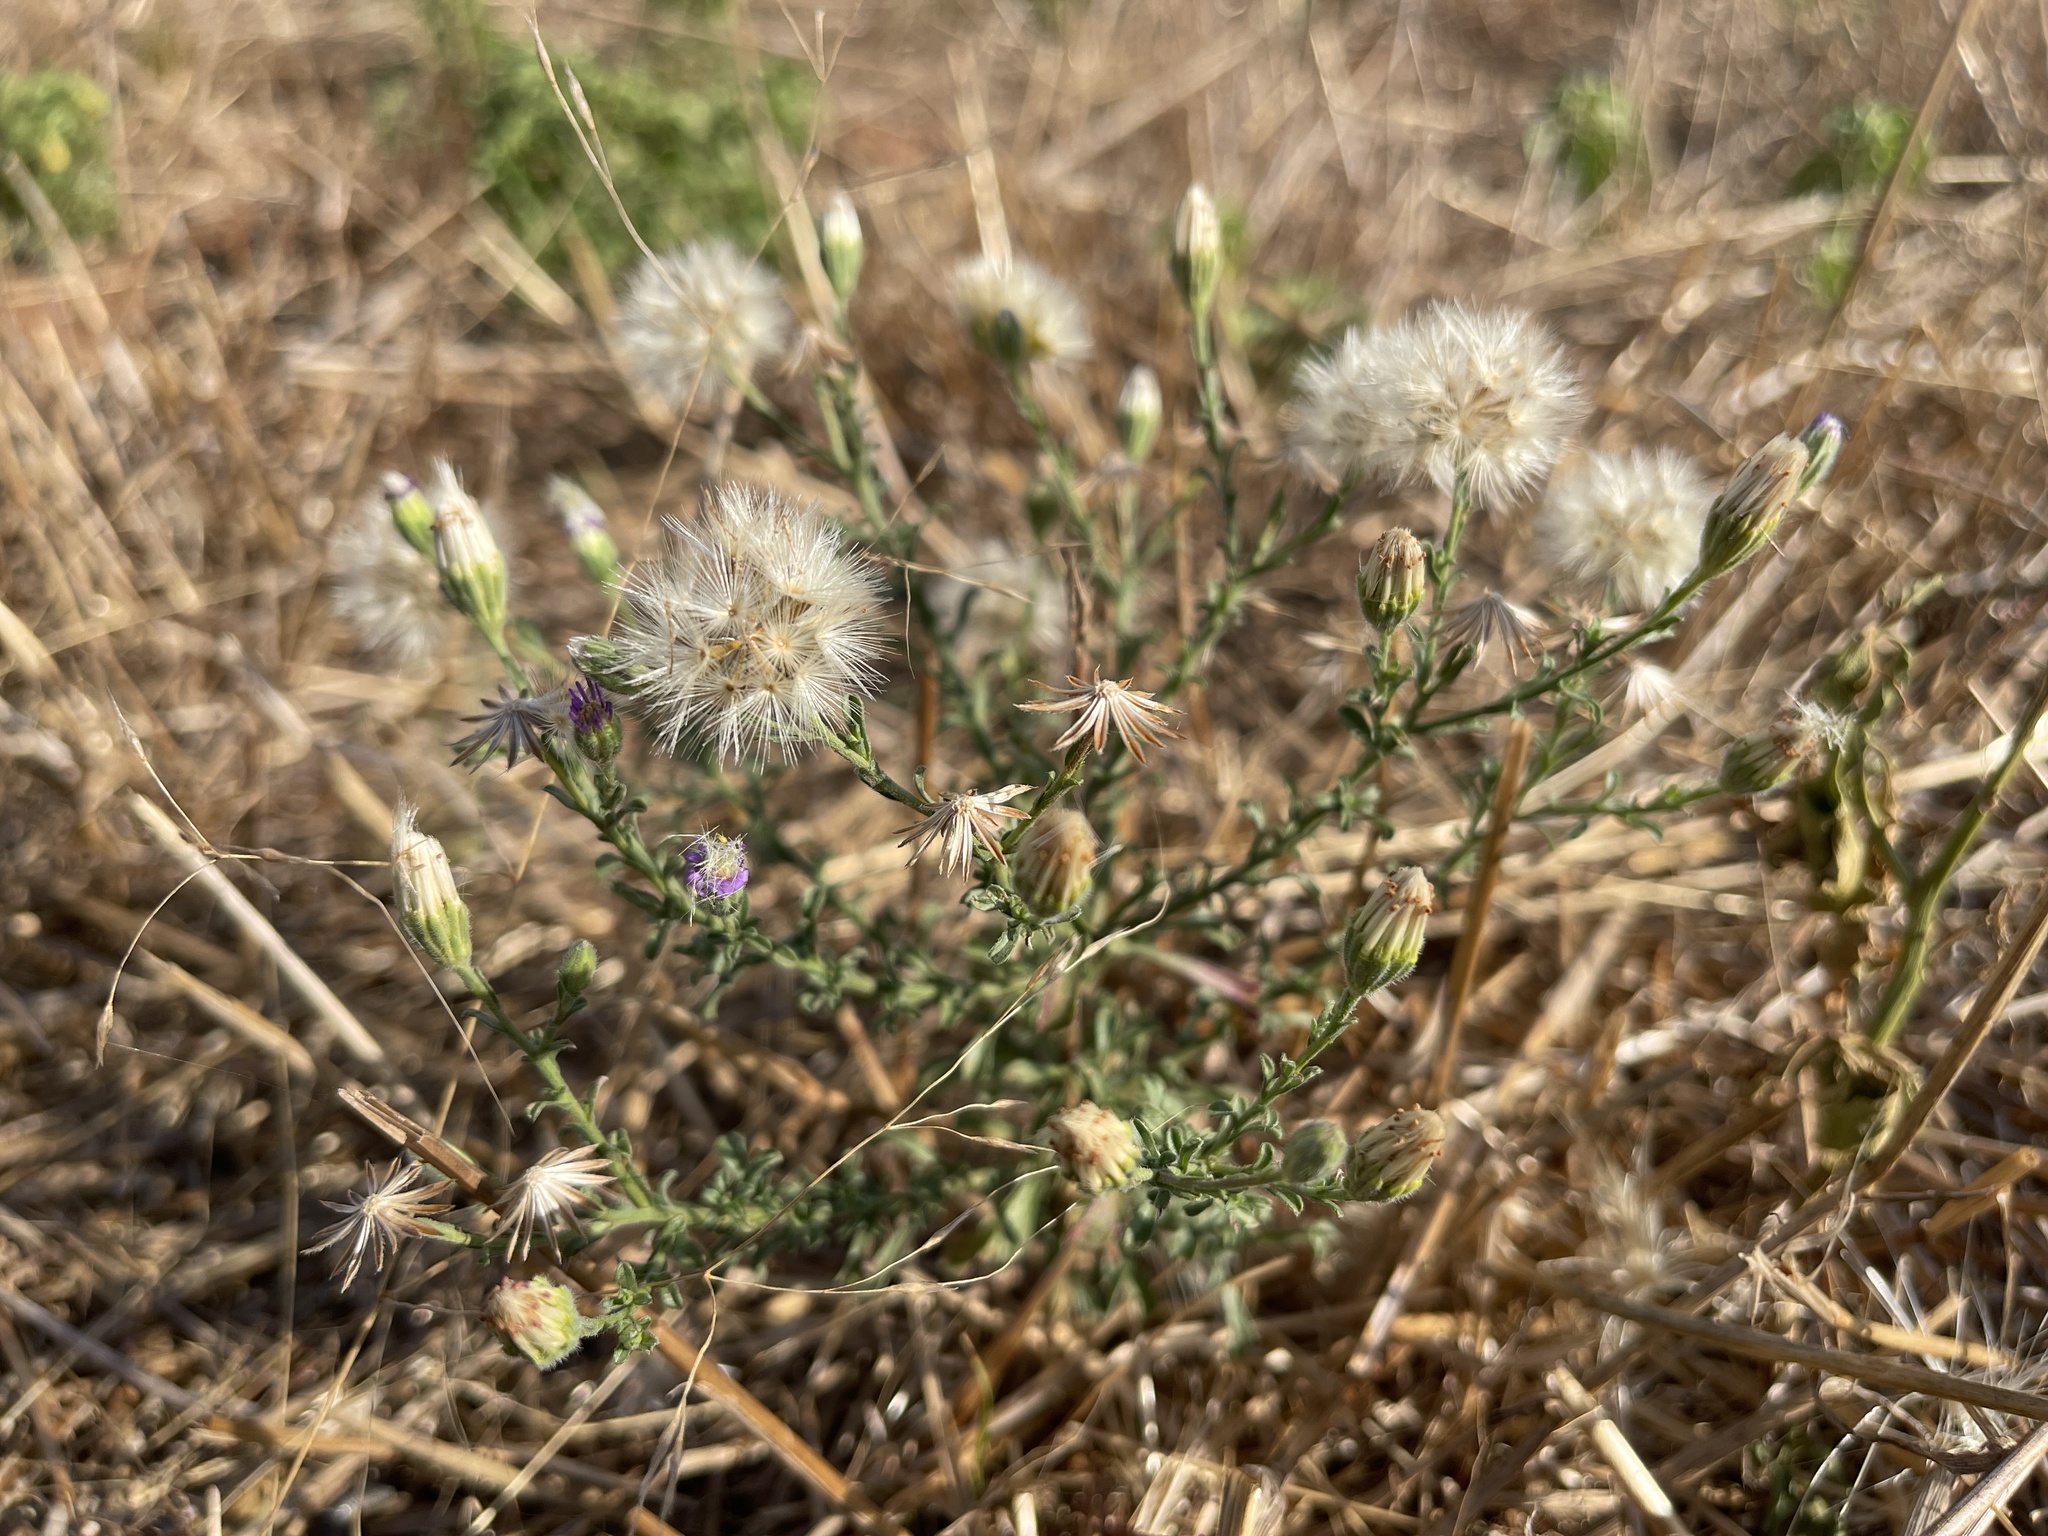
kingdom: Plantae
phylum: Tracheophyta
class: Magnoliopsida
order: Asterales
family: Asteraceae
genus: Vittadinia
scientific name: Vittadinia cuneata
